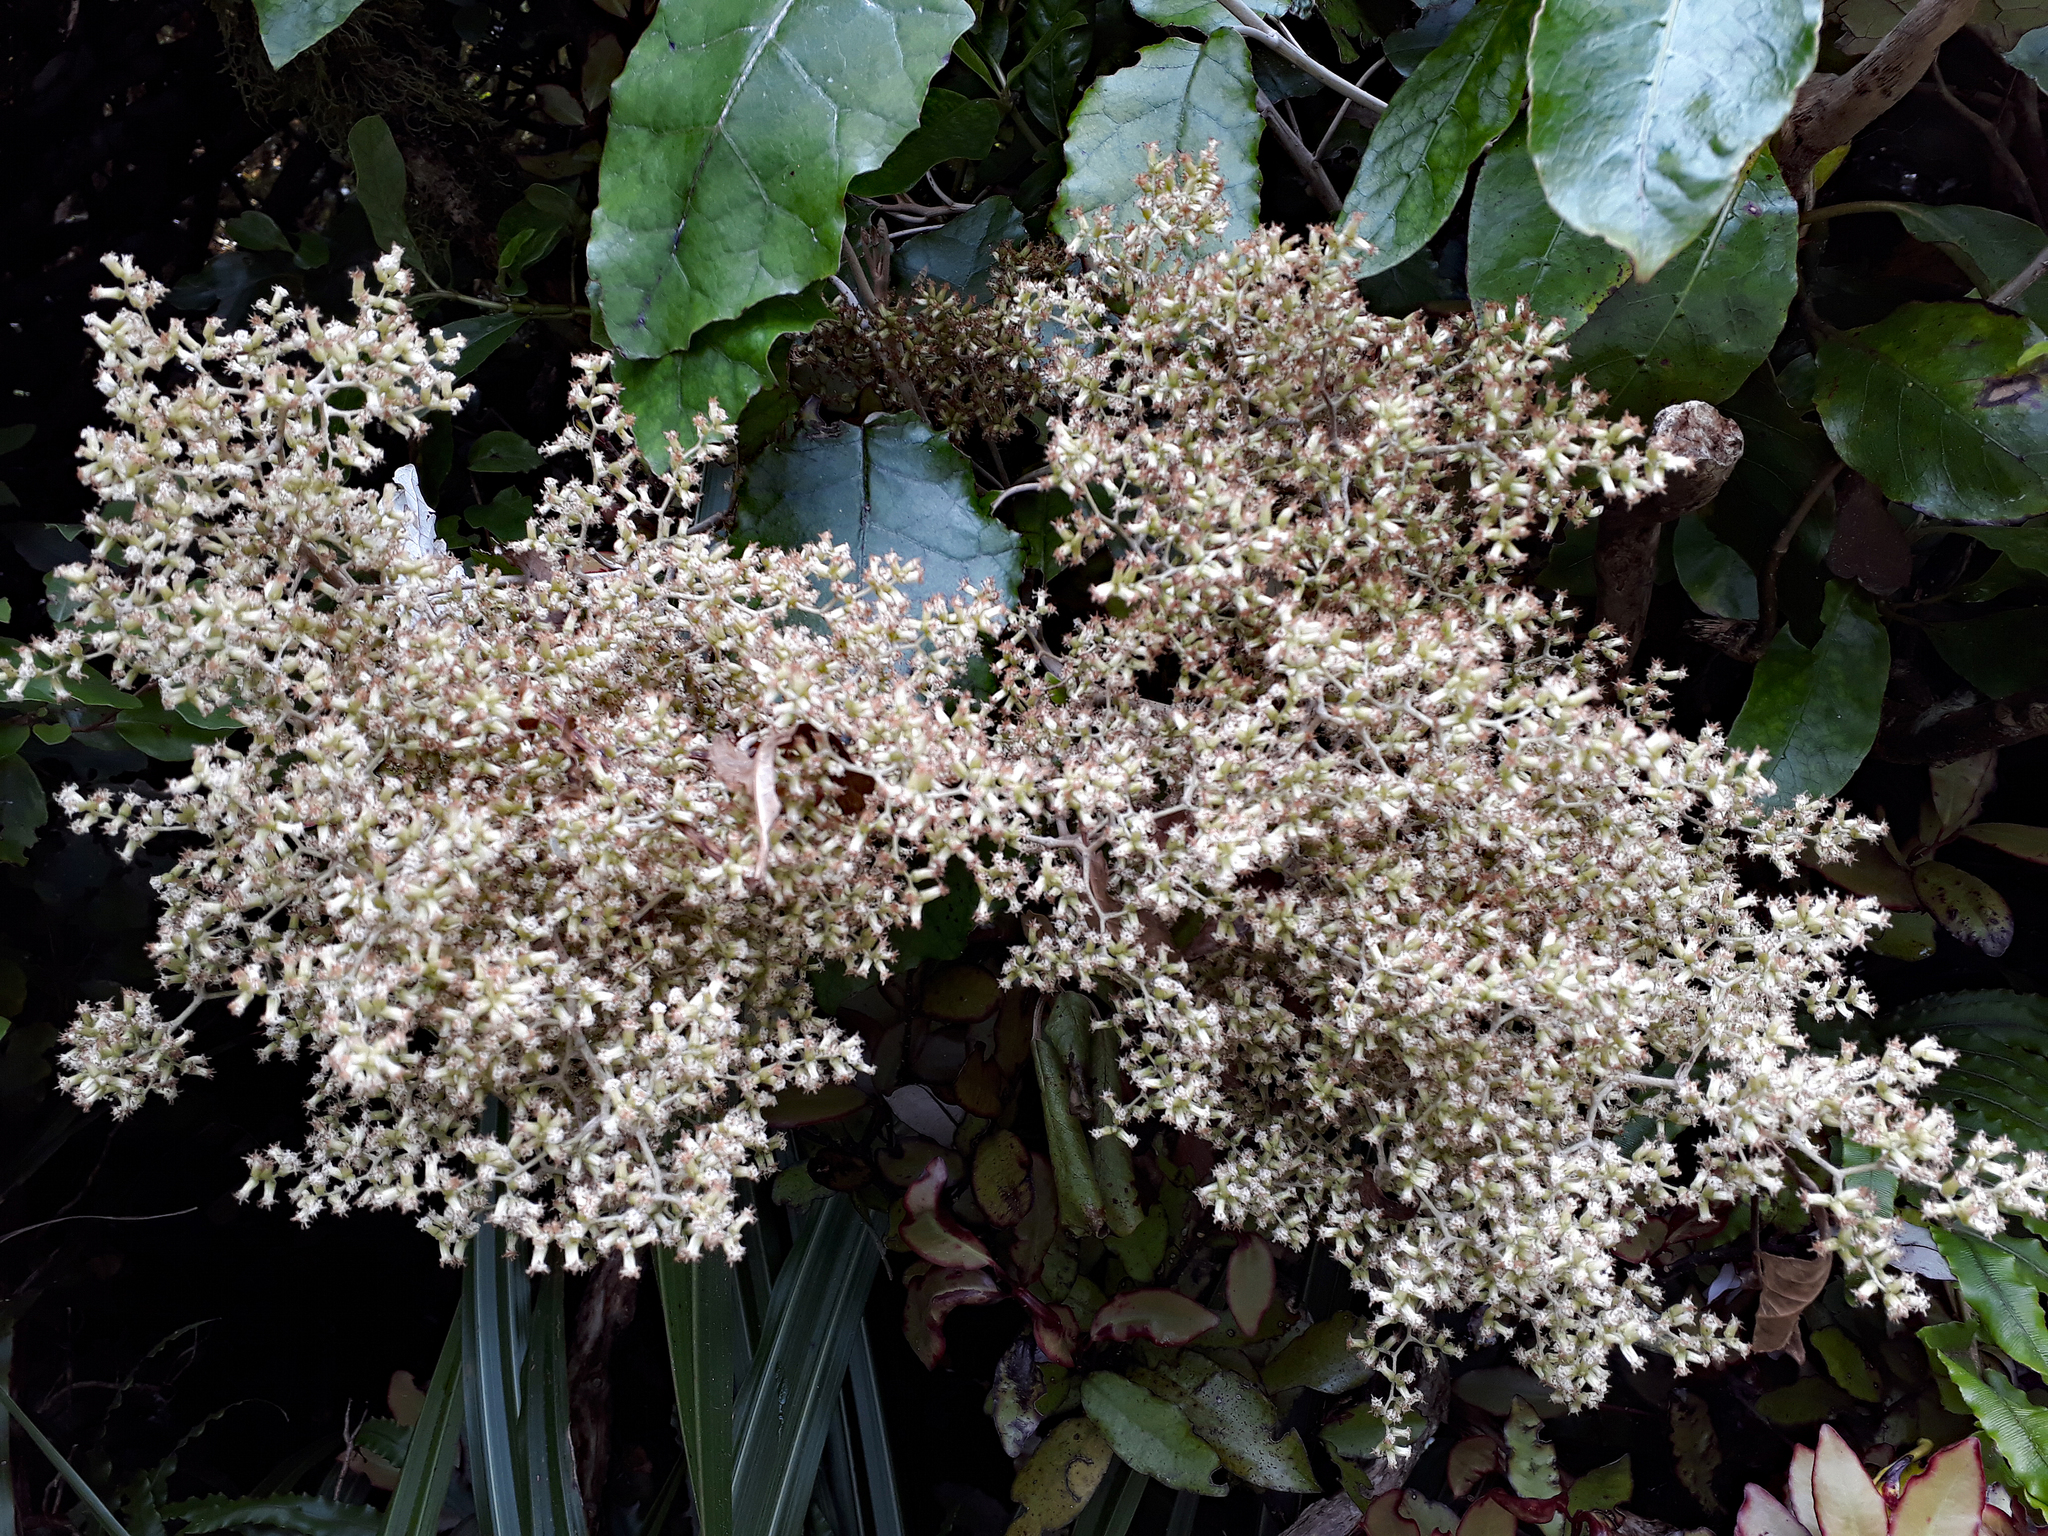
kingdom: Plantae
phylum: Tracheophyta
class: Magnoliopsida
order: Asterales
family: Asteraceae
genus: Brachyglottis
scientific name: Brachyglottis repanda
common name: Hedge ragwort
